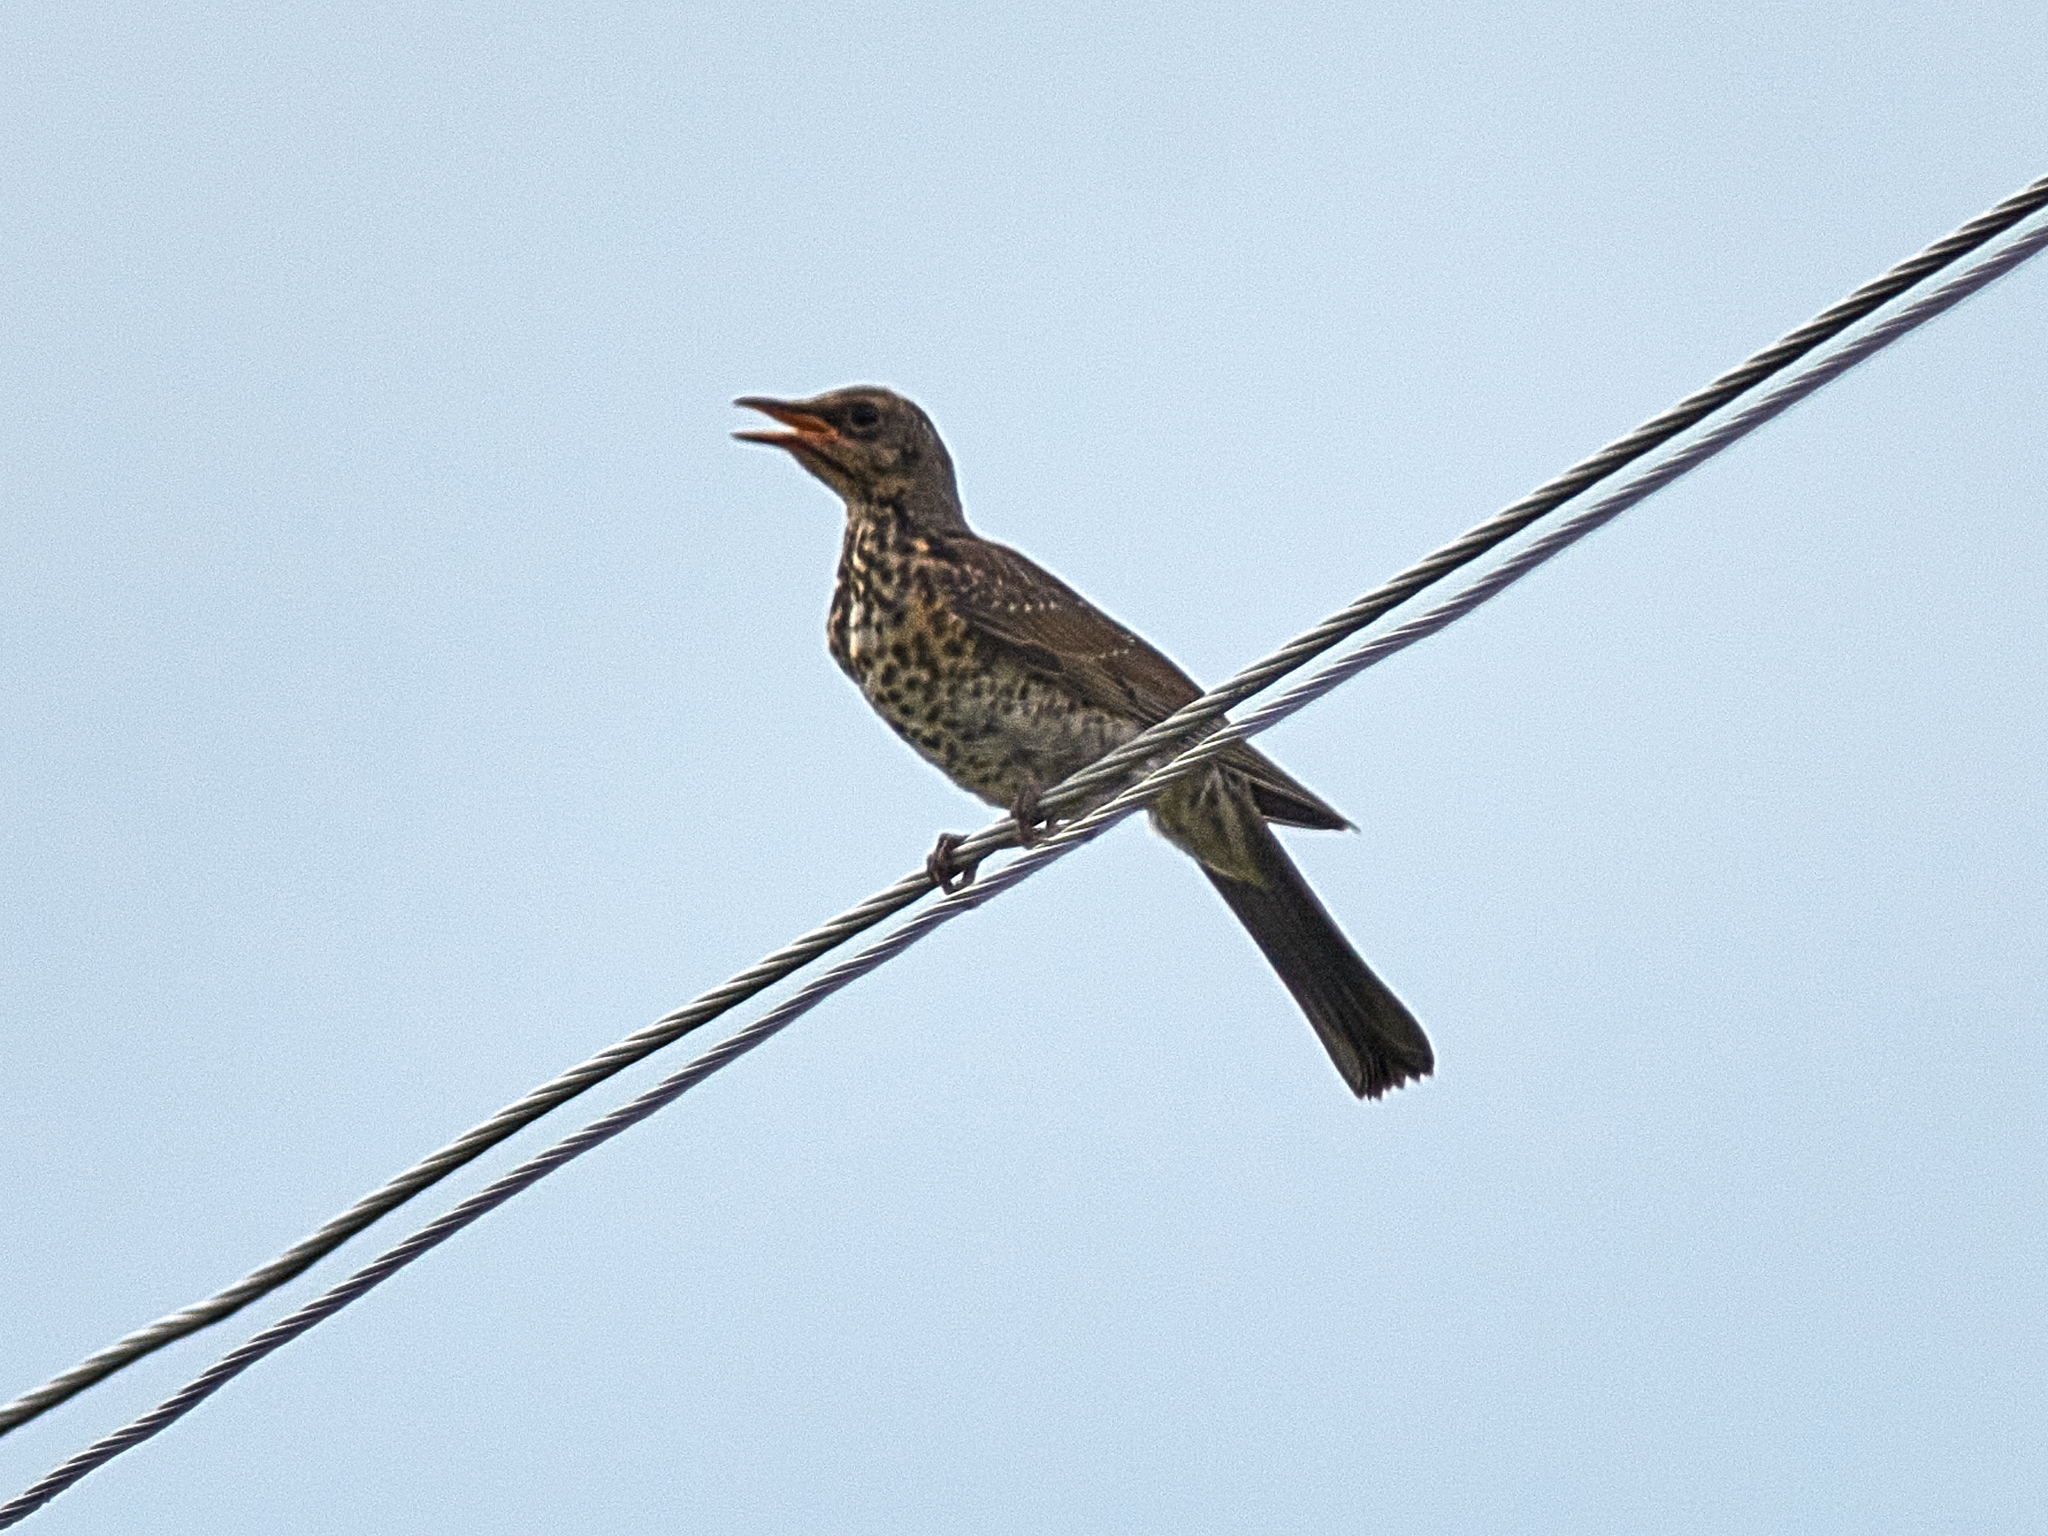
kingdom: Animalia
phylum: Chordata
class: Aves
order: Passeriformes
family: Turdidae
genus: Turdus
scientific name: Turdus pilaris
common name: Fieldfare
